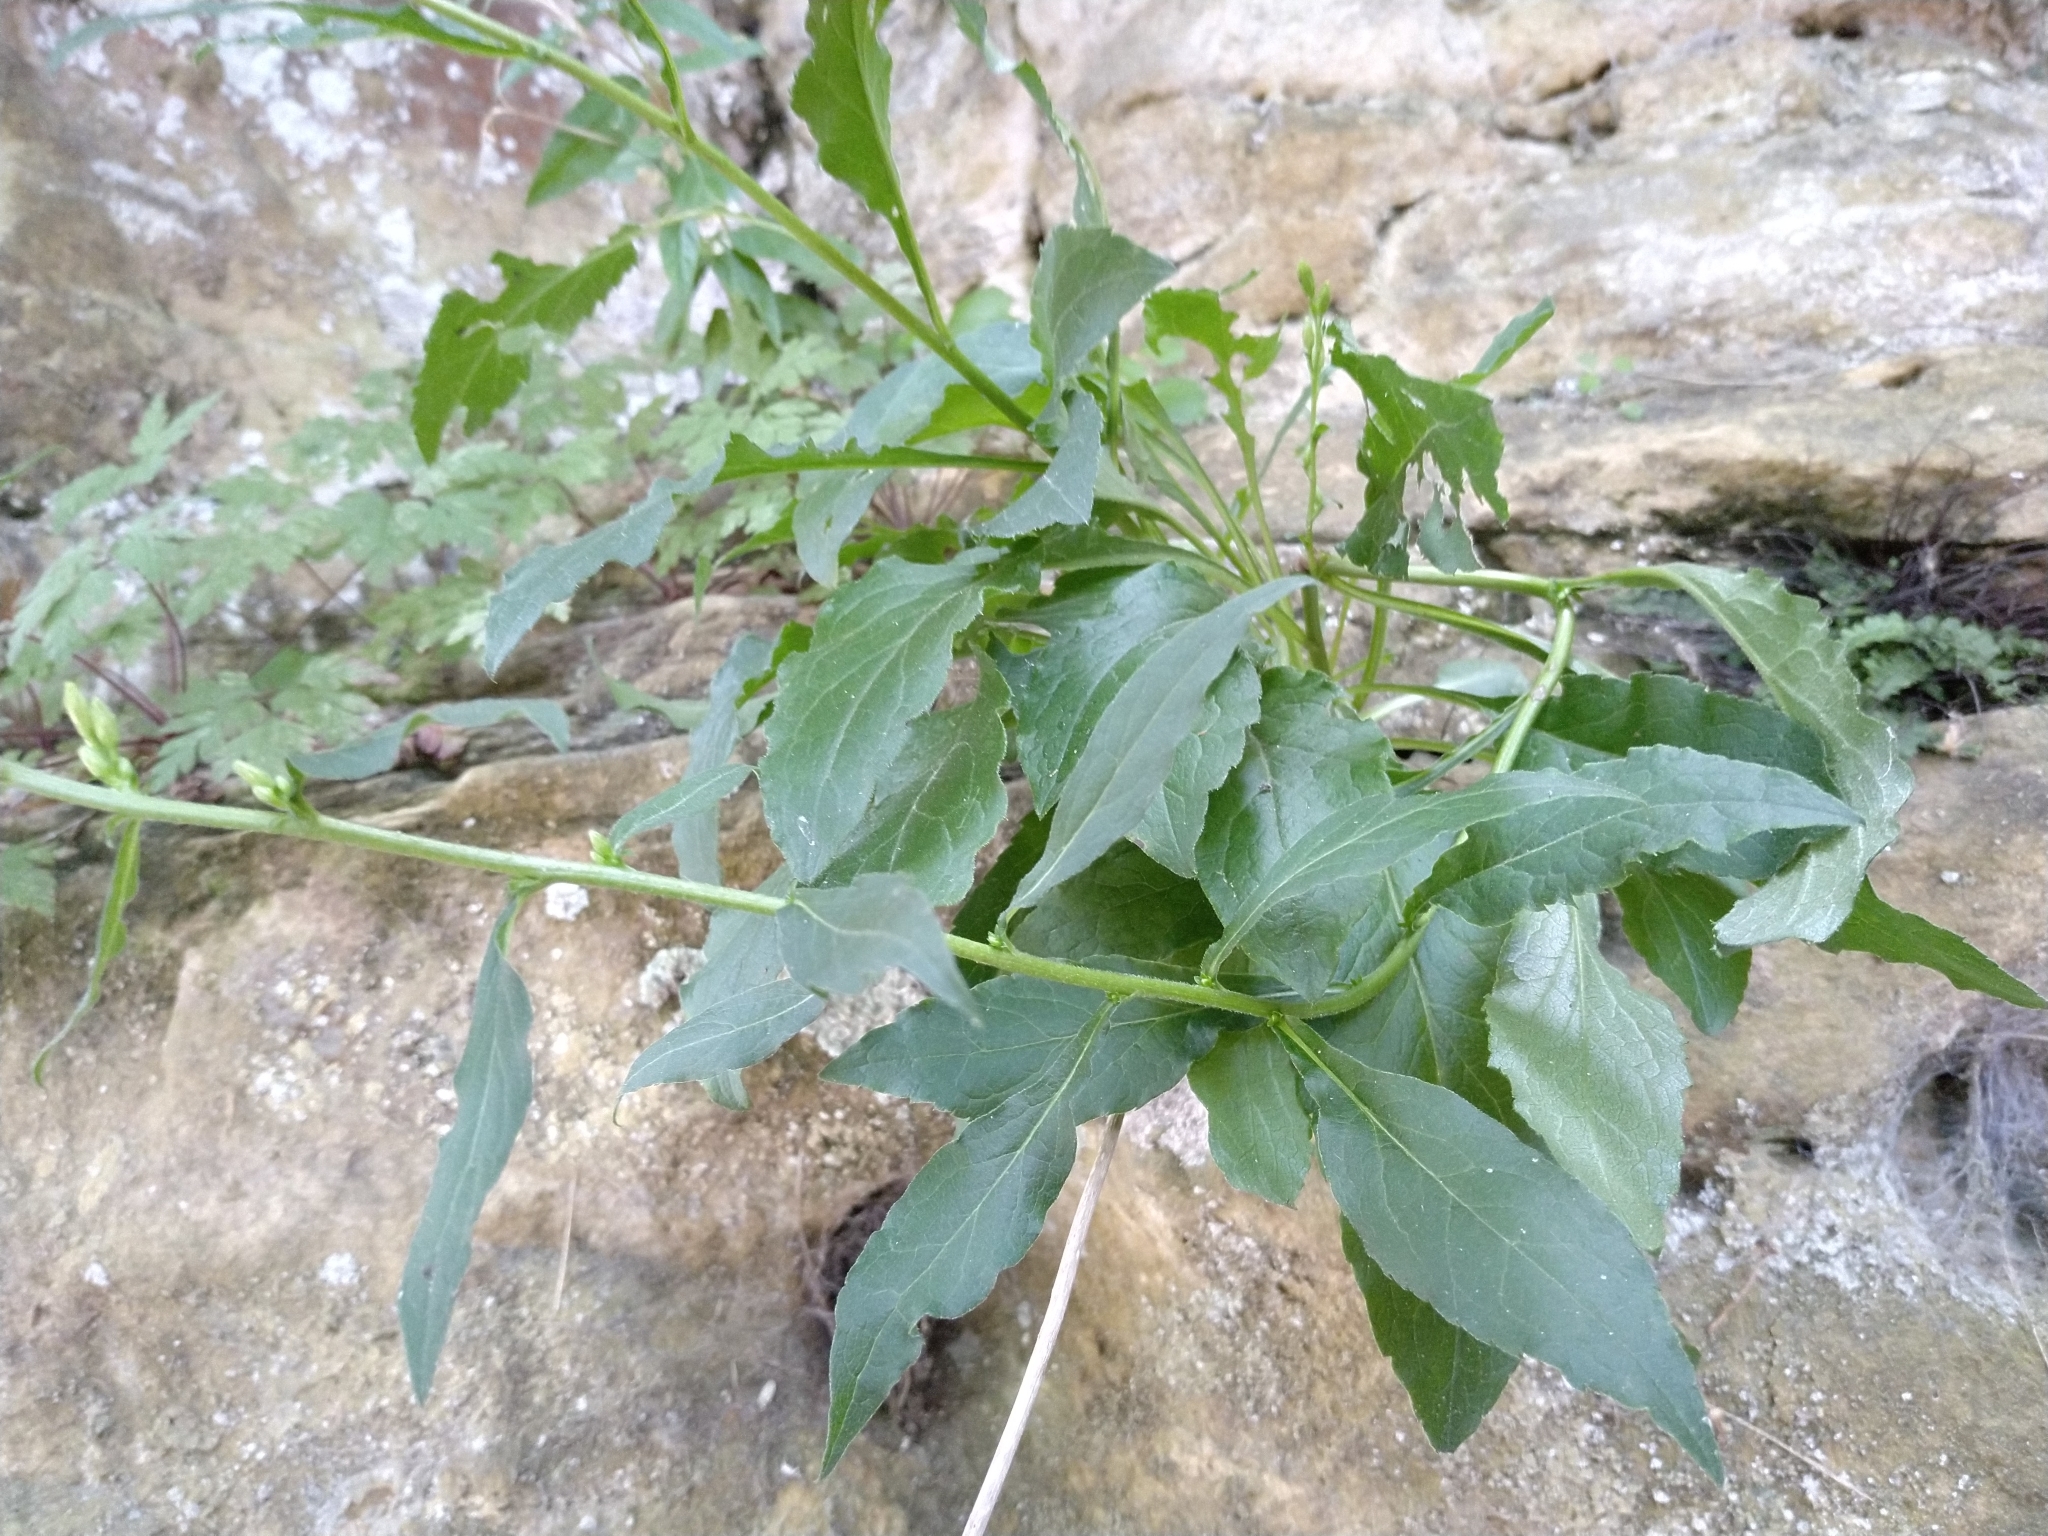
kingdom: Plantae
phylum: Tracheophyta
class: Magnoliopsida
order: Asterales
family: Asteraceae
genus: Solidago
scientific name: Solidago virgaurea
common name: Goldenrod
